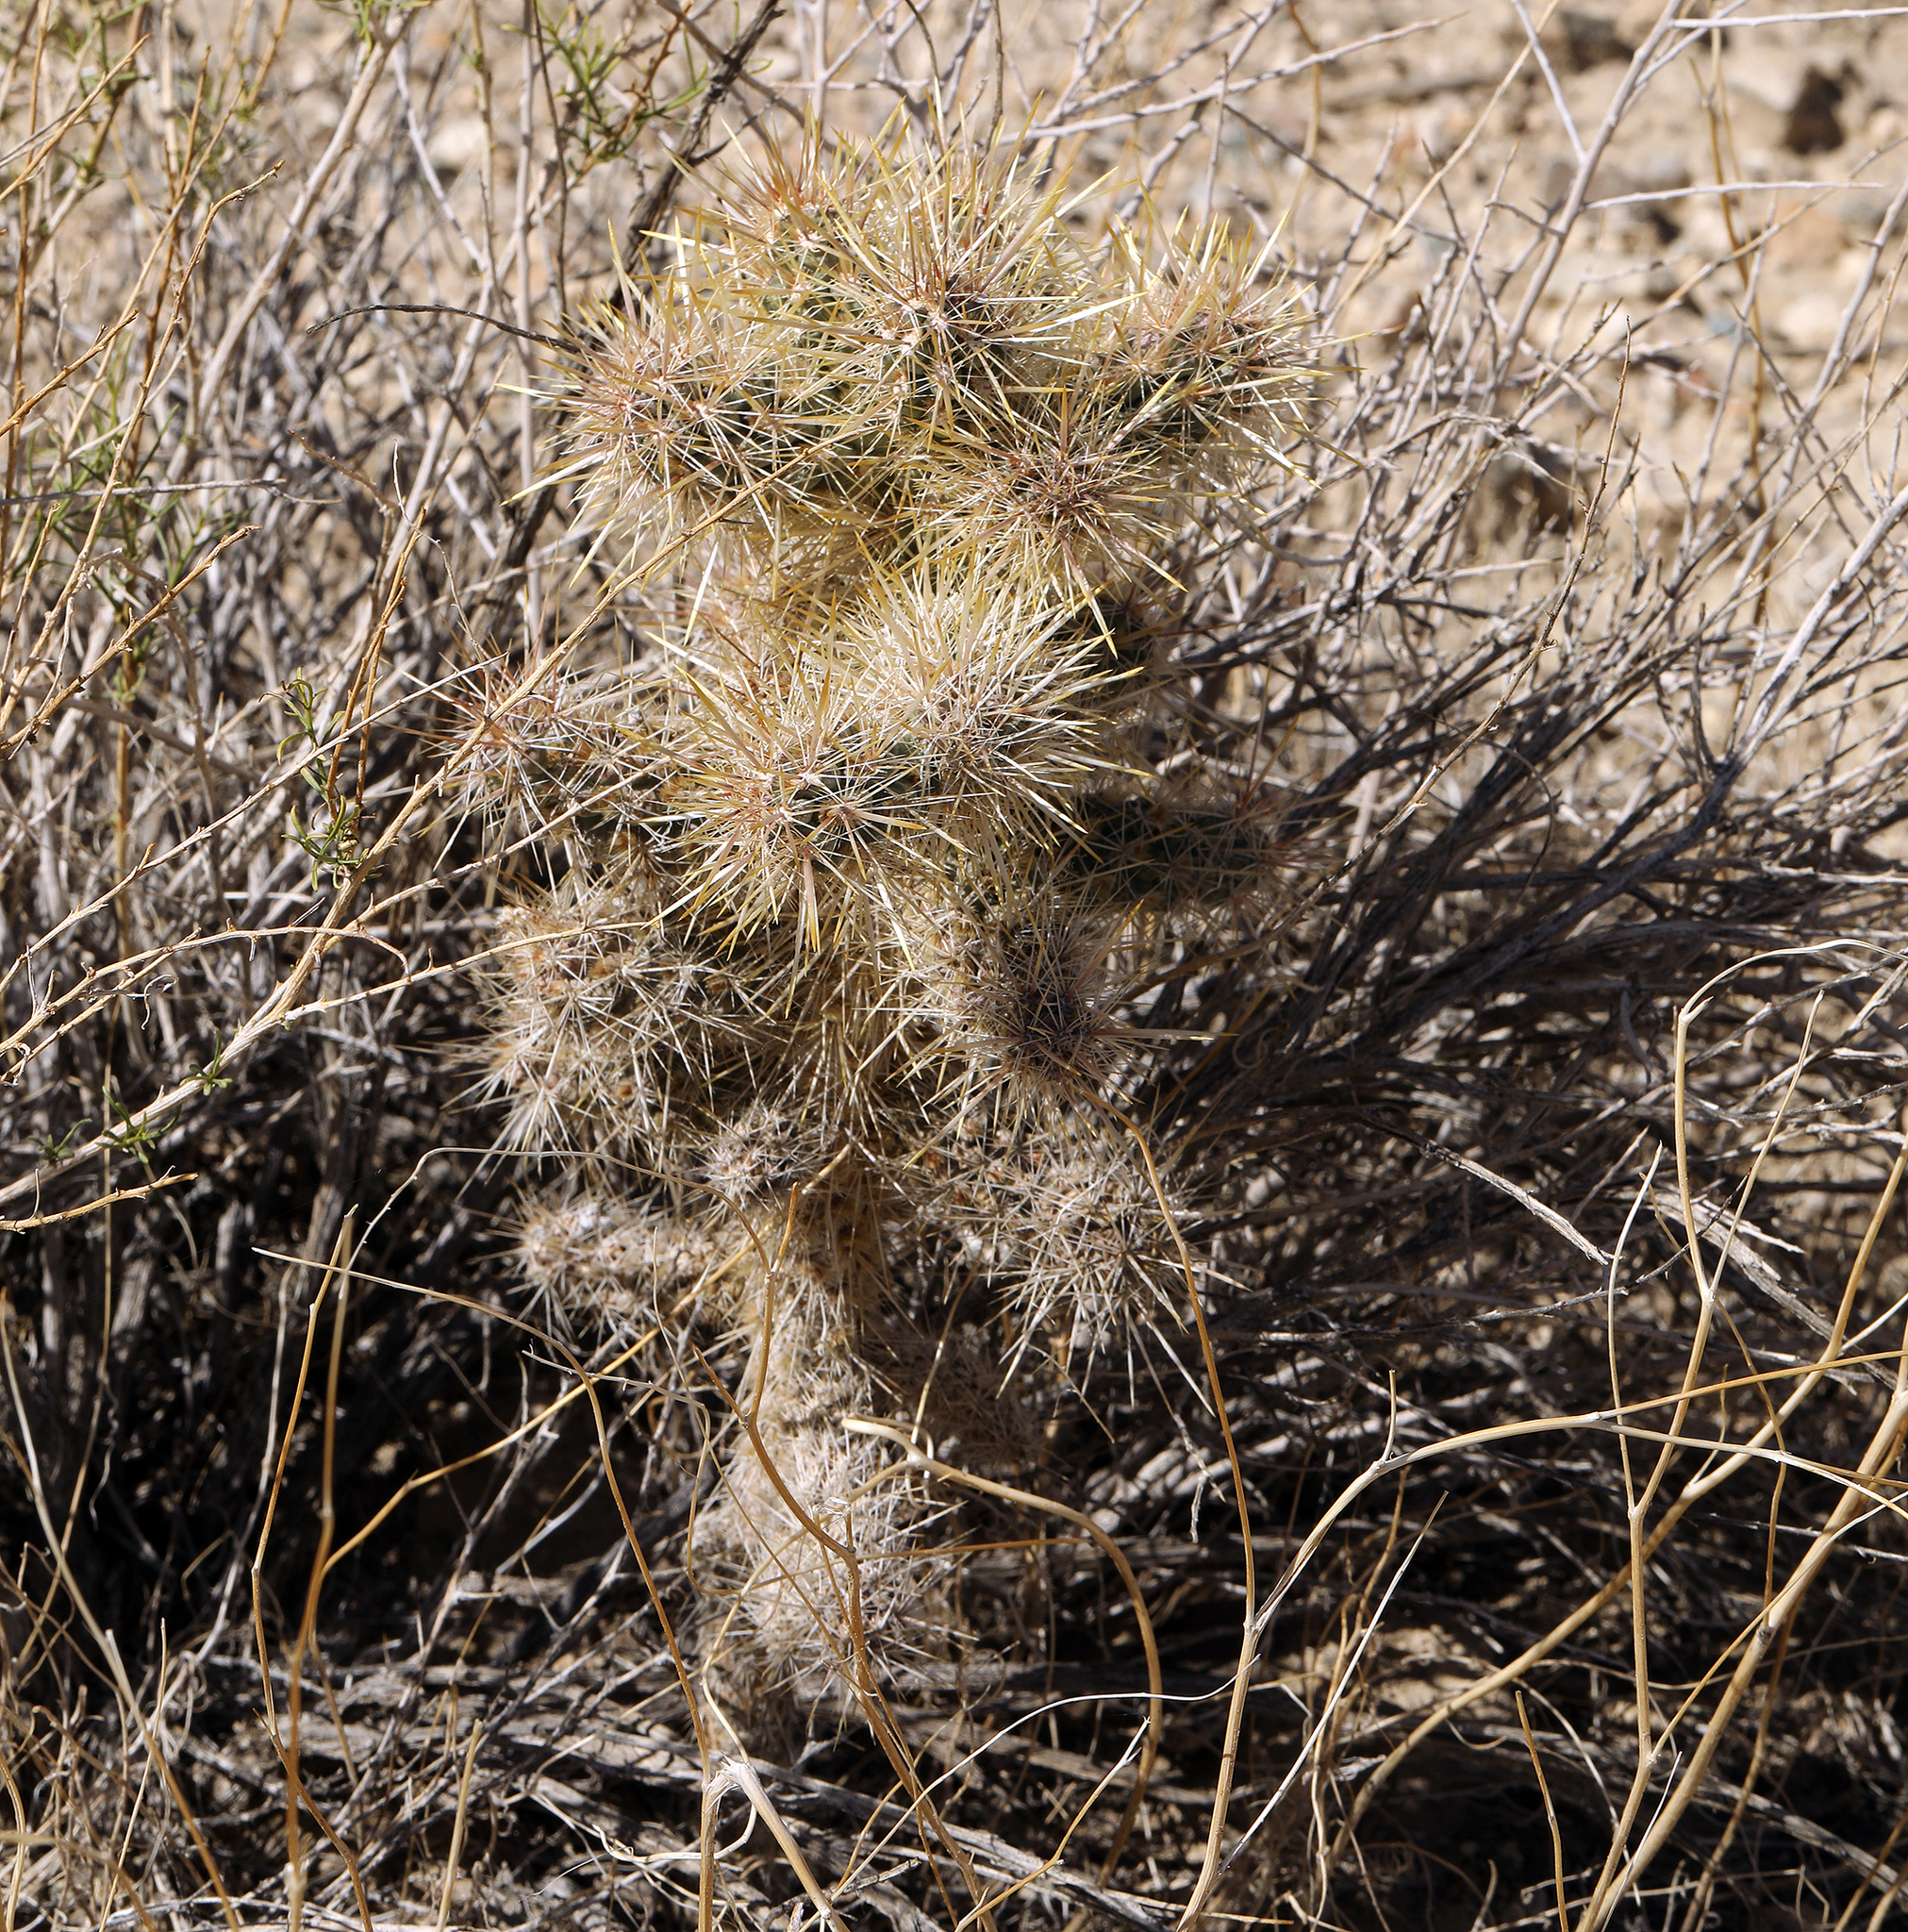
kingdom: Plantae
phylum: Tracheophyta
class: Magnoliopsida
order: Caryophyllales
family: Cactaceae
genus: Cylindropuntia
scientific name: Cylindropuntia echinocarpa
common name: Ground cholla
